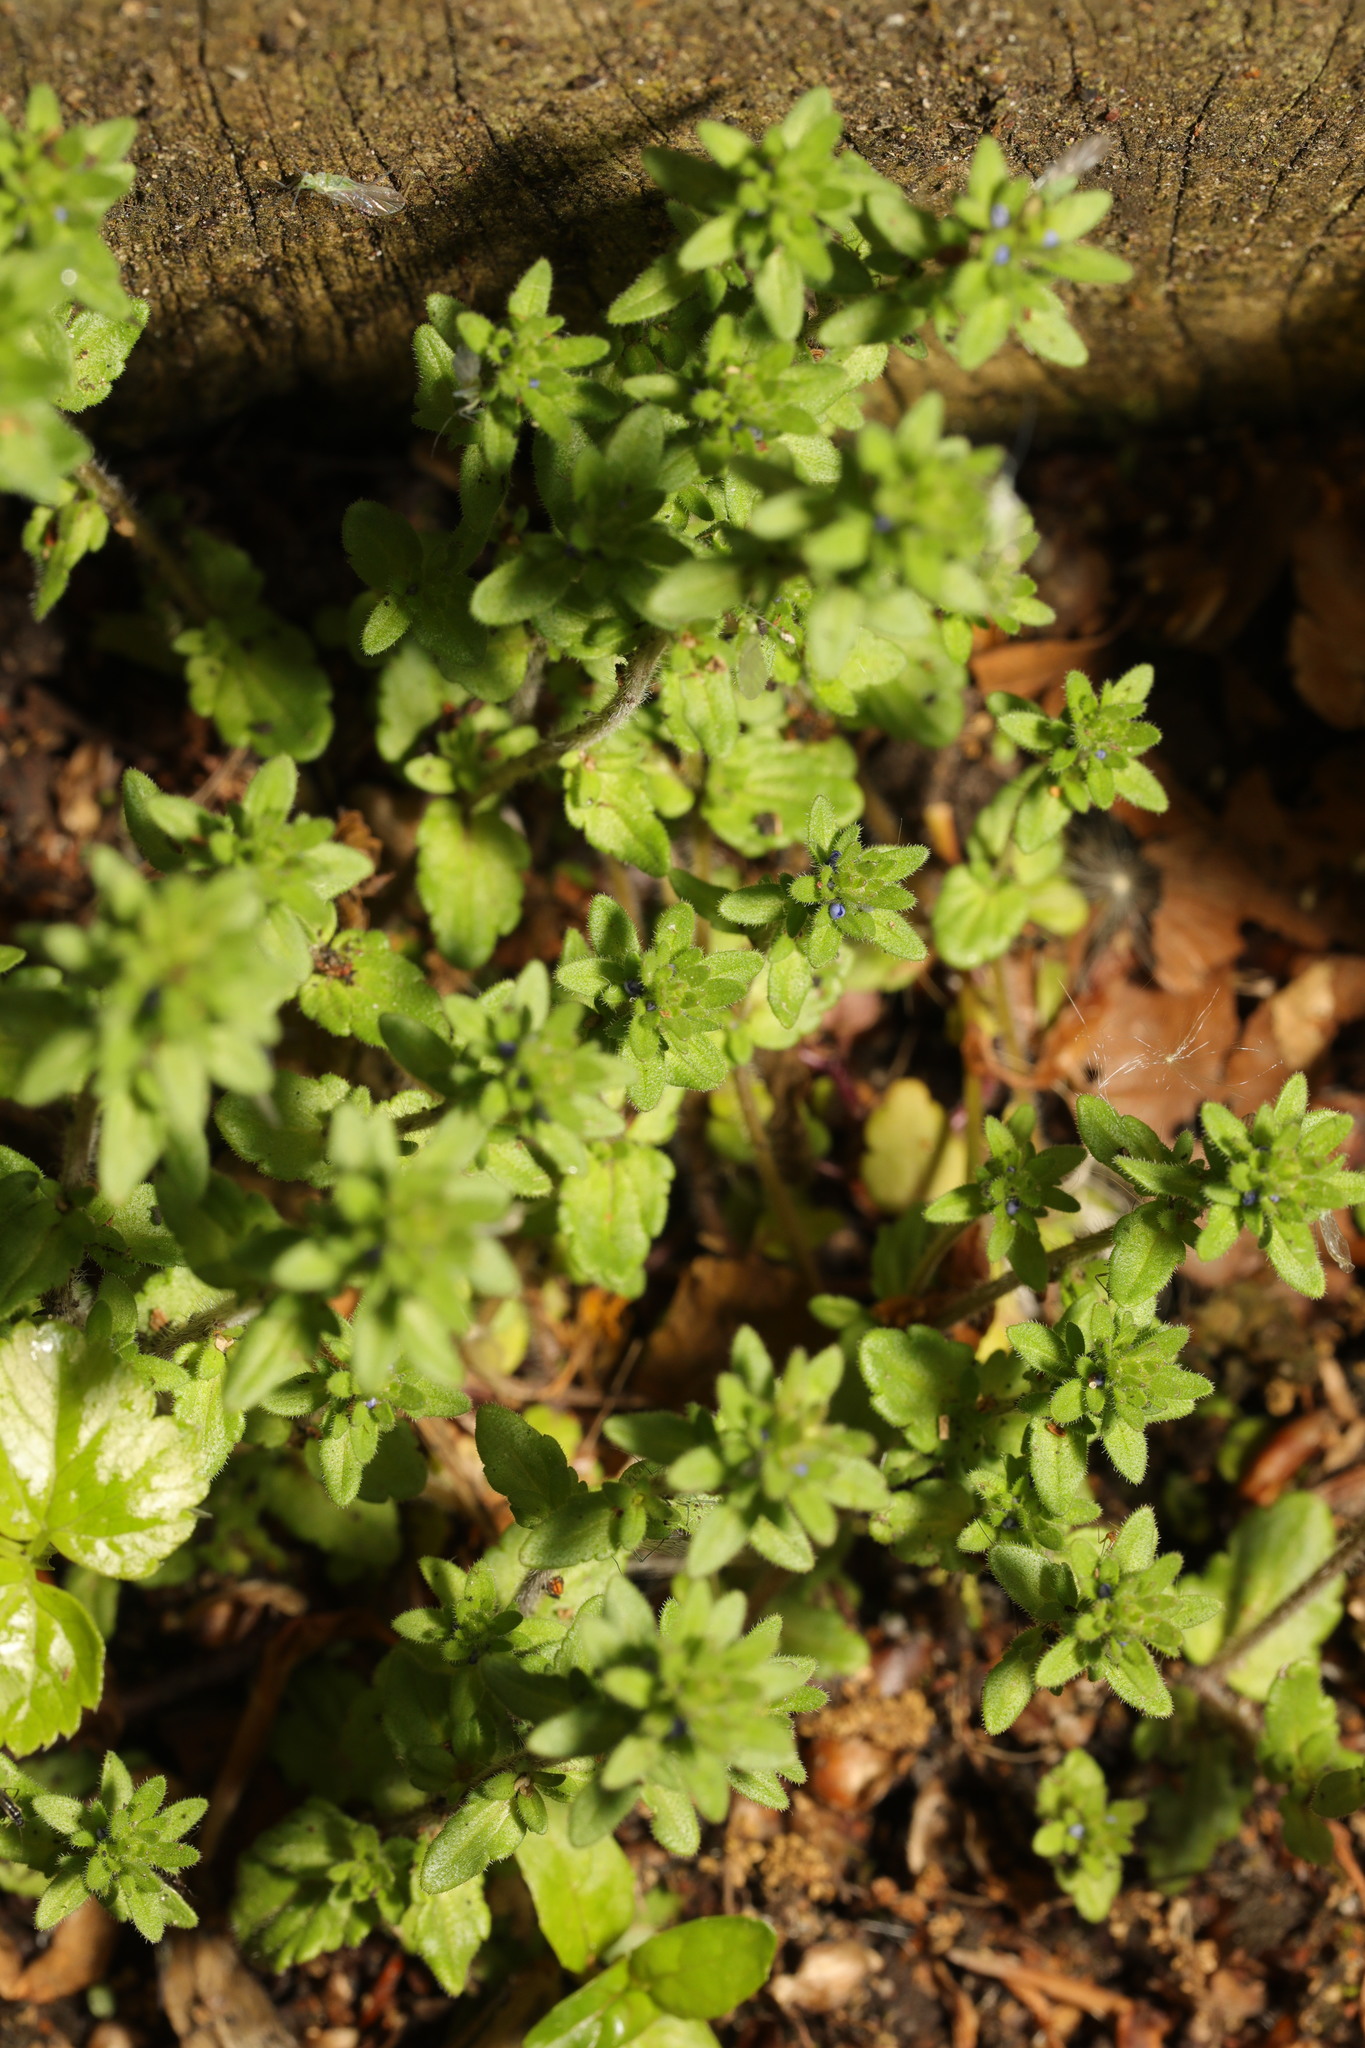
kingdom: Plantae
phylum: Tracheophyta
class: Magnoliopsida
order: Lamiales
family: Plantaginaceae
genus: Veronica
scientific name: Veronica arvensis
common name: Corn speedwell
